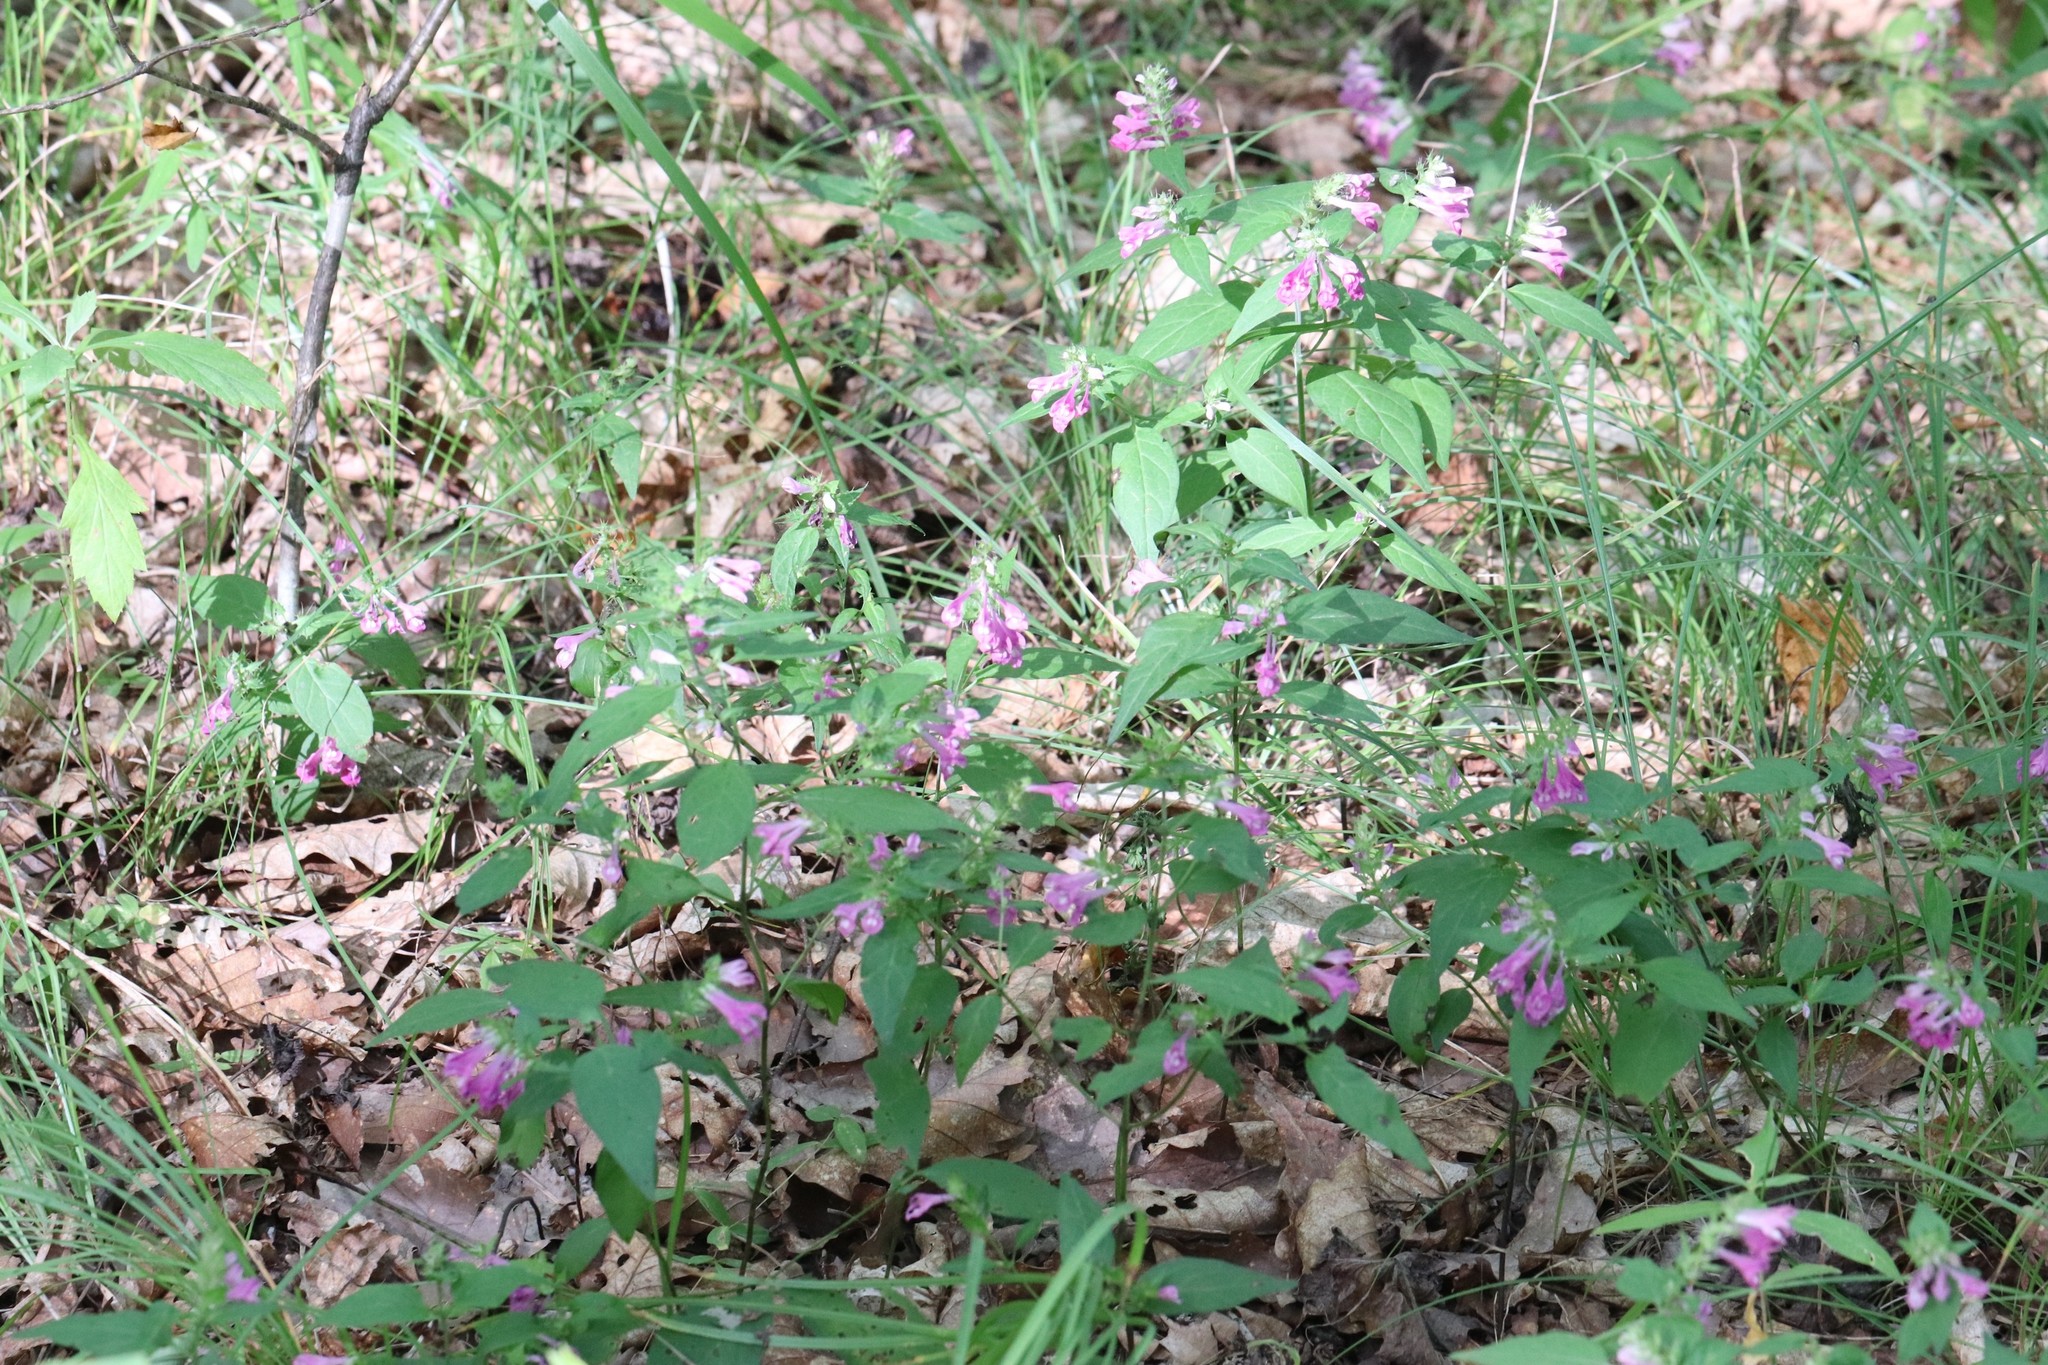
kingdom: Plantae
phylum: Tracheophyta
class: Magnoliopsida
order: Lamiales
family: Orobanchaceae
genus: Melampyrum
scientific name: Melampyrum roseum
